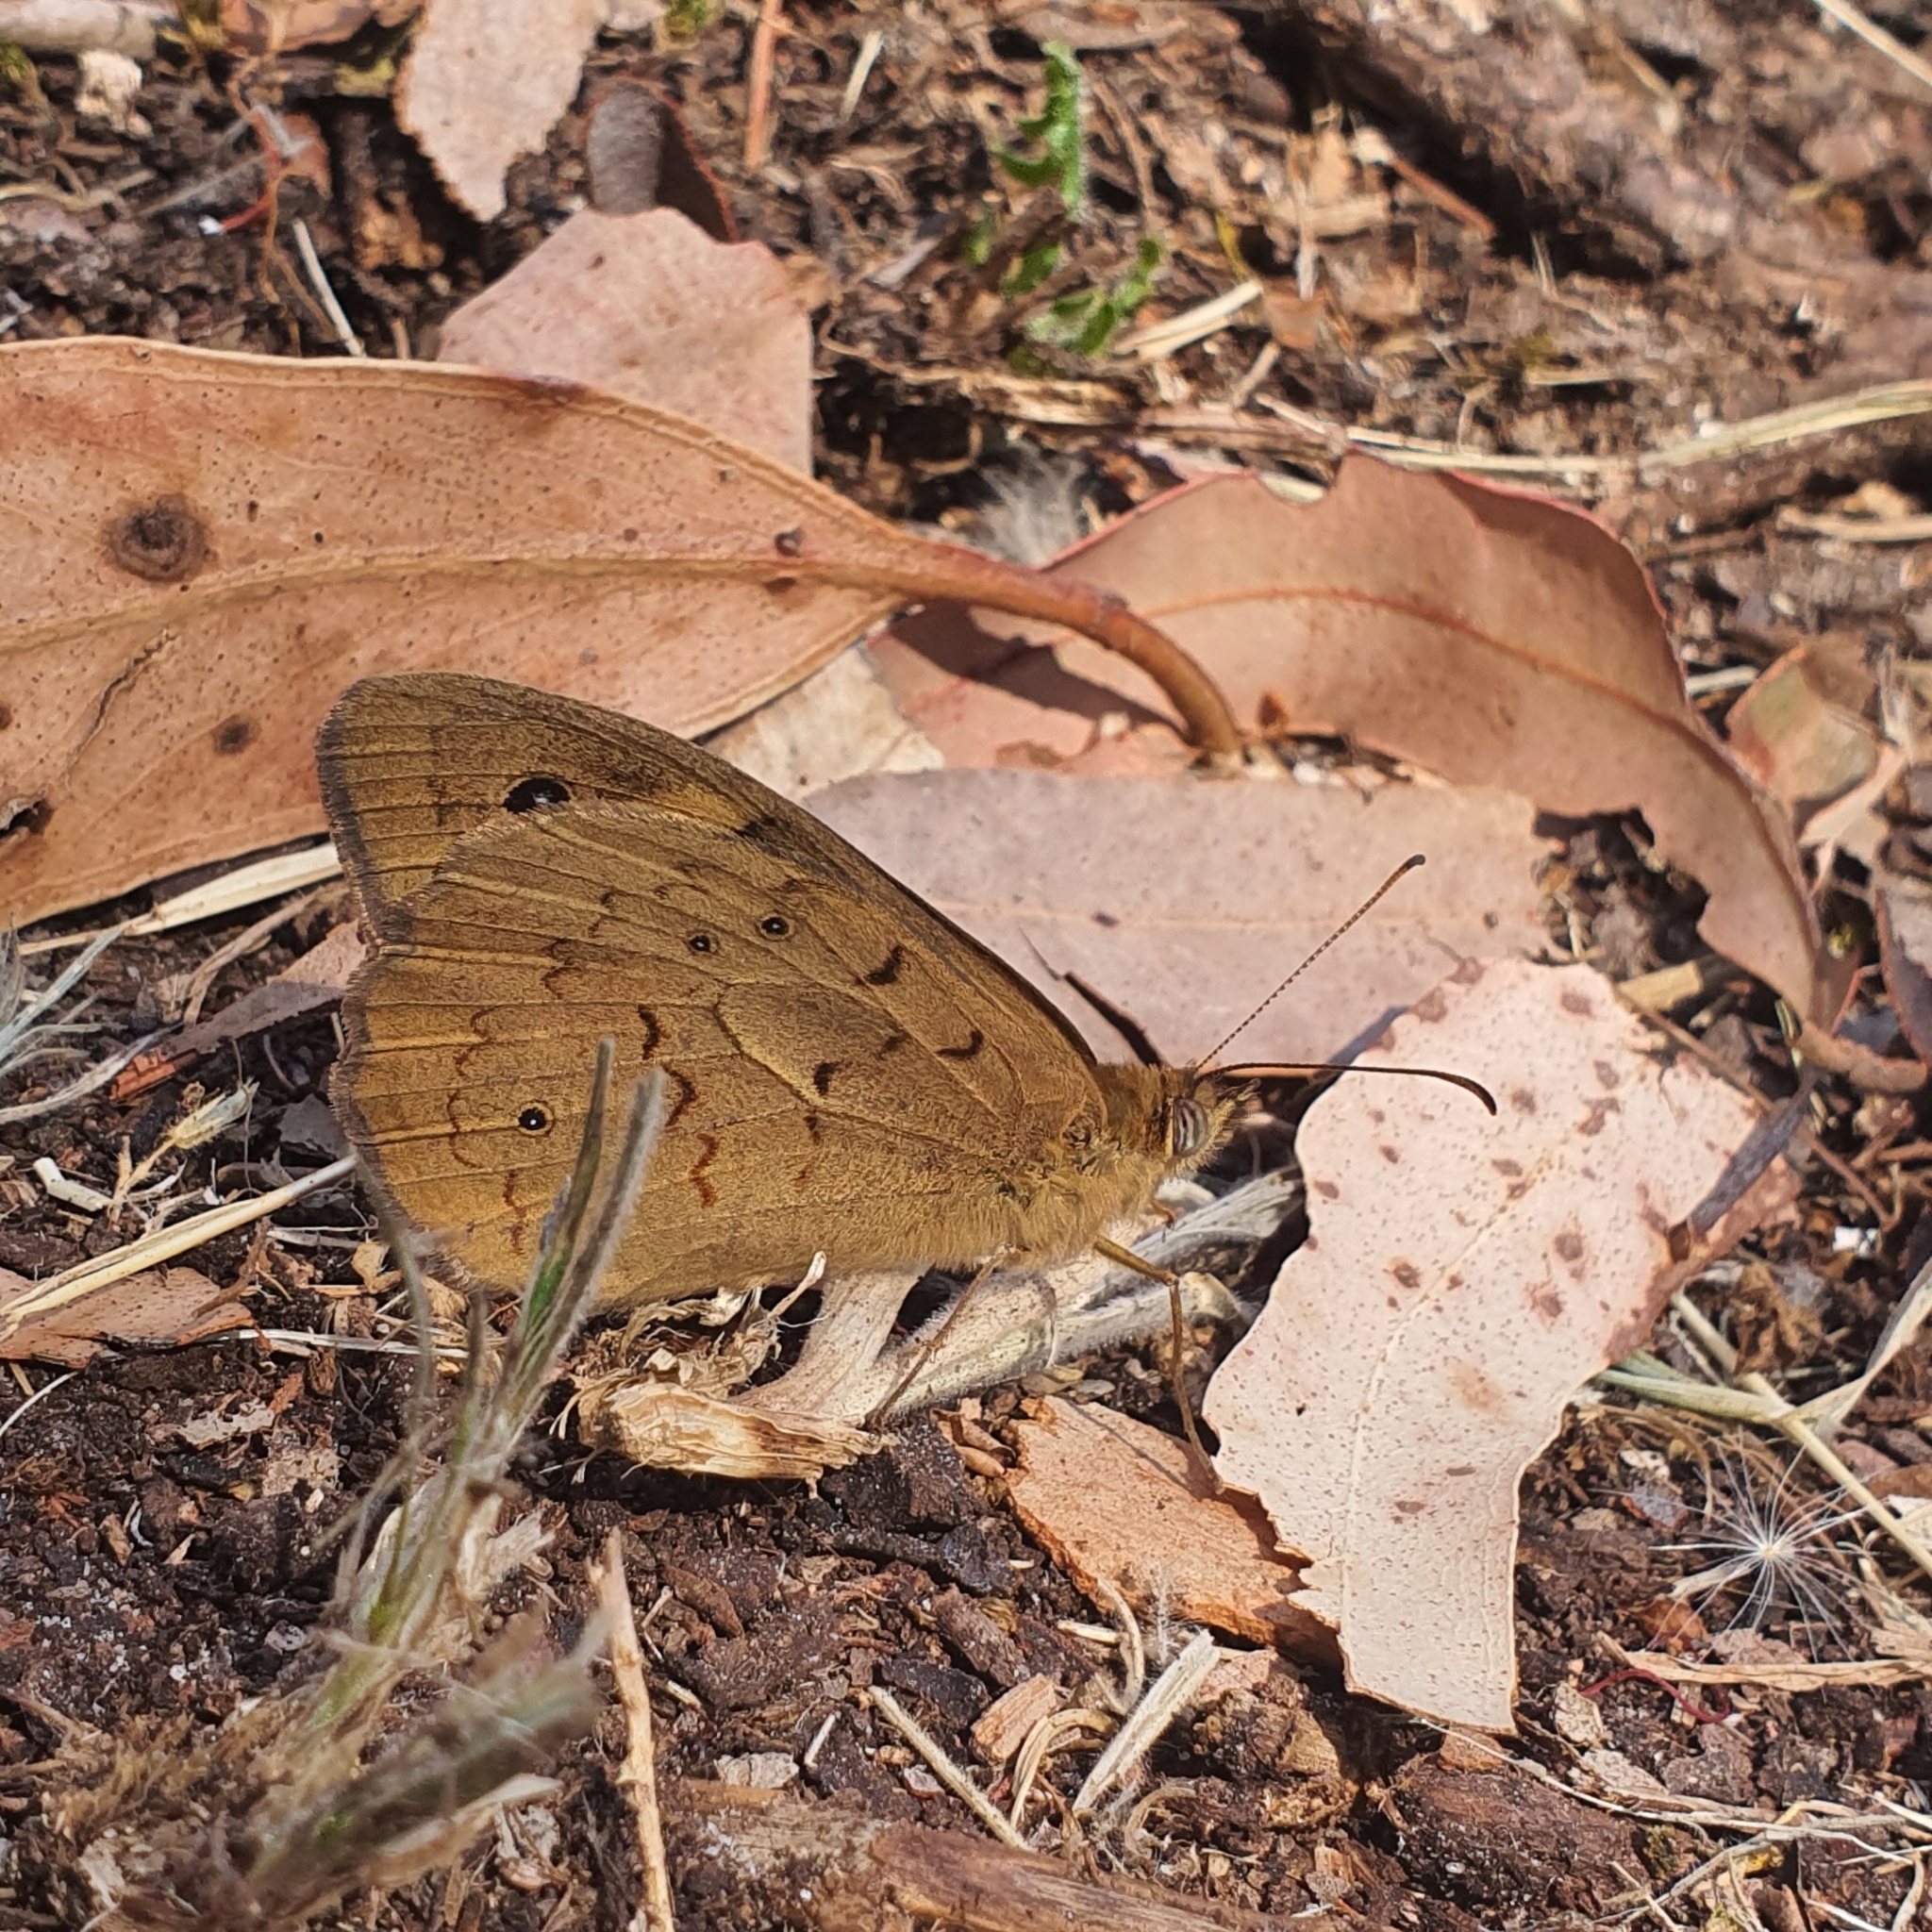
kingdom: Animalia
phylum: Arthropoda
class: Insecta
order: Lepidoptera
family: Nymphalidae
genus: Heteronympha
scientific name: Heteronympha merope
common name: Common brown
